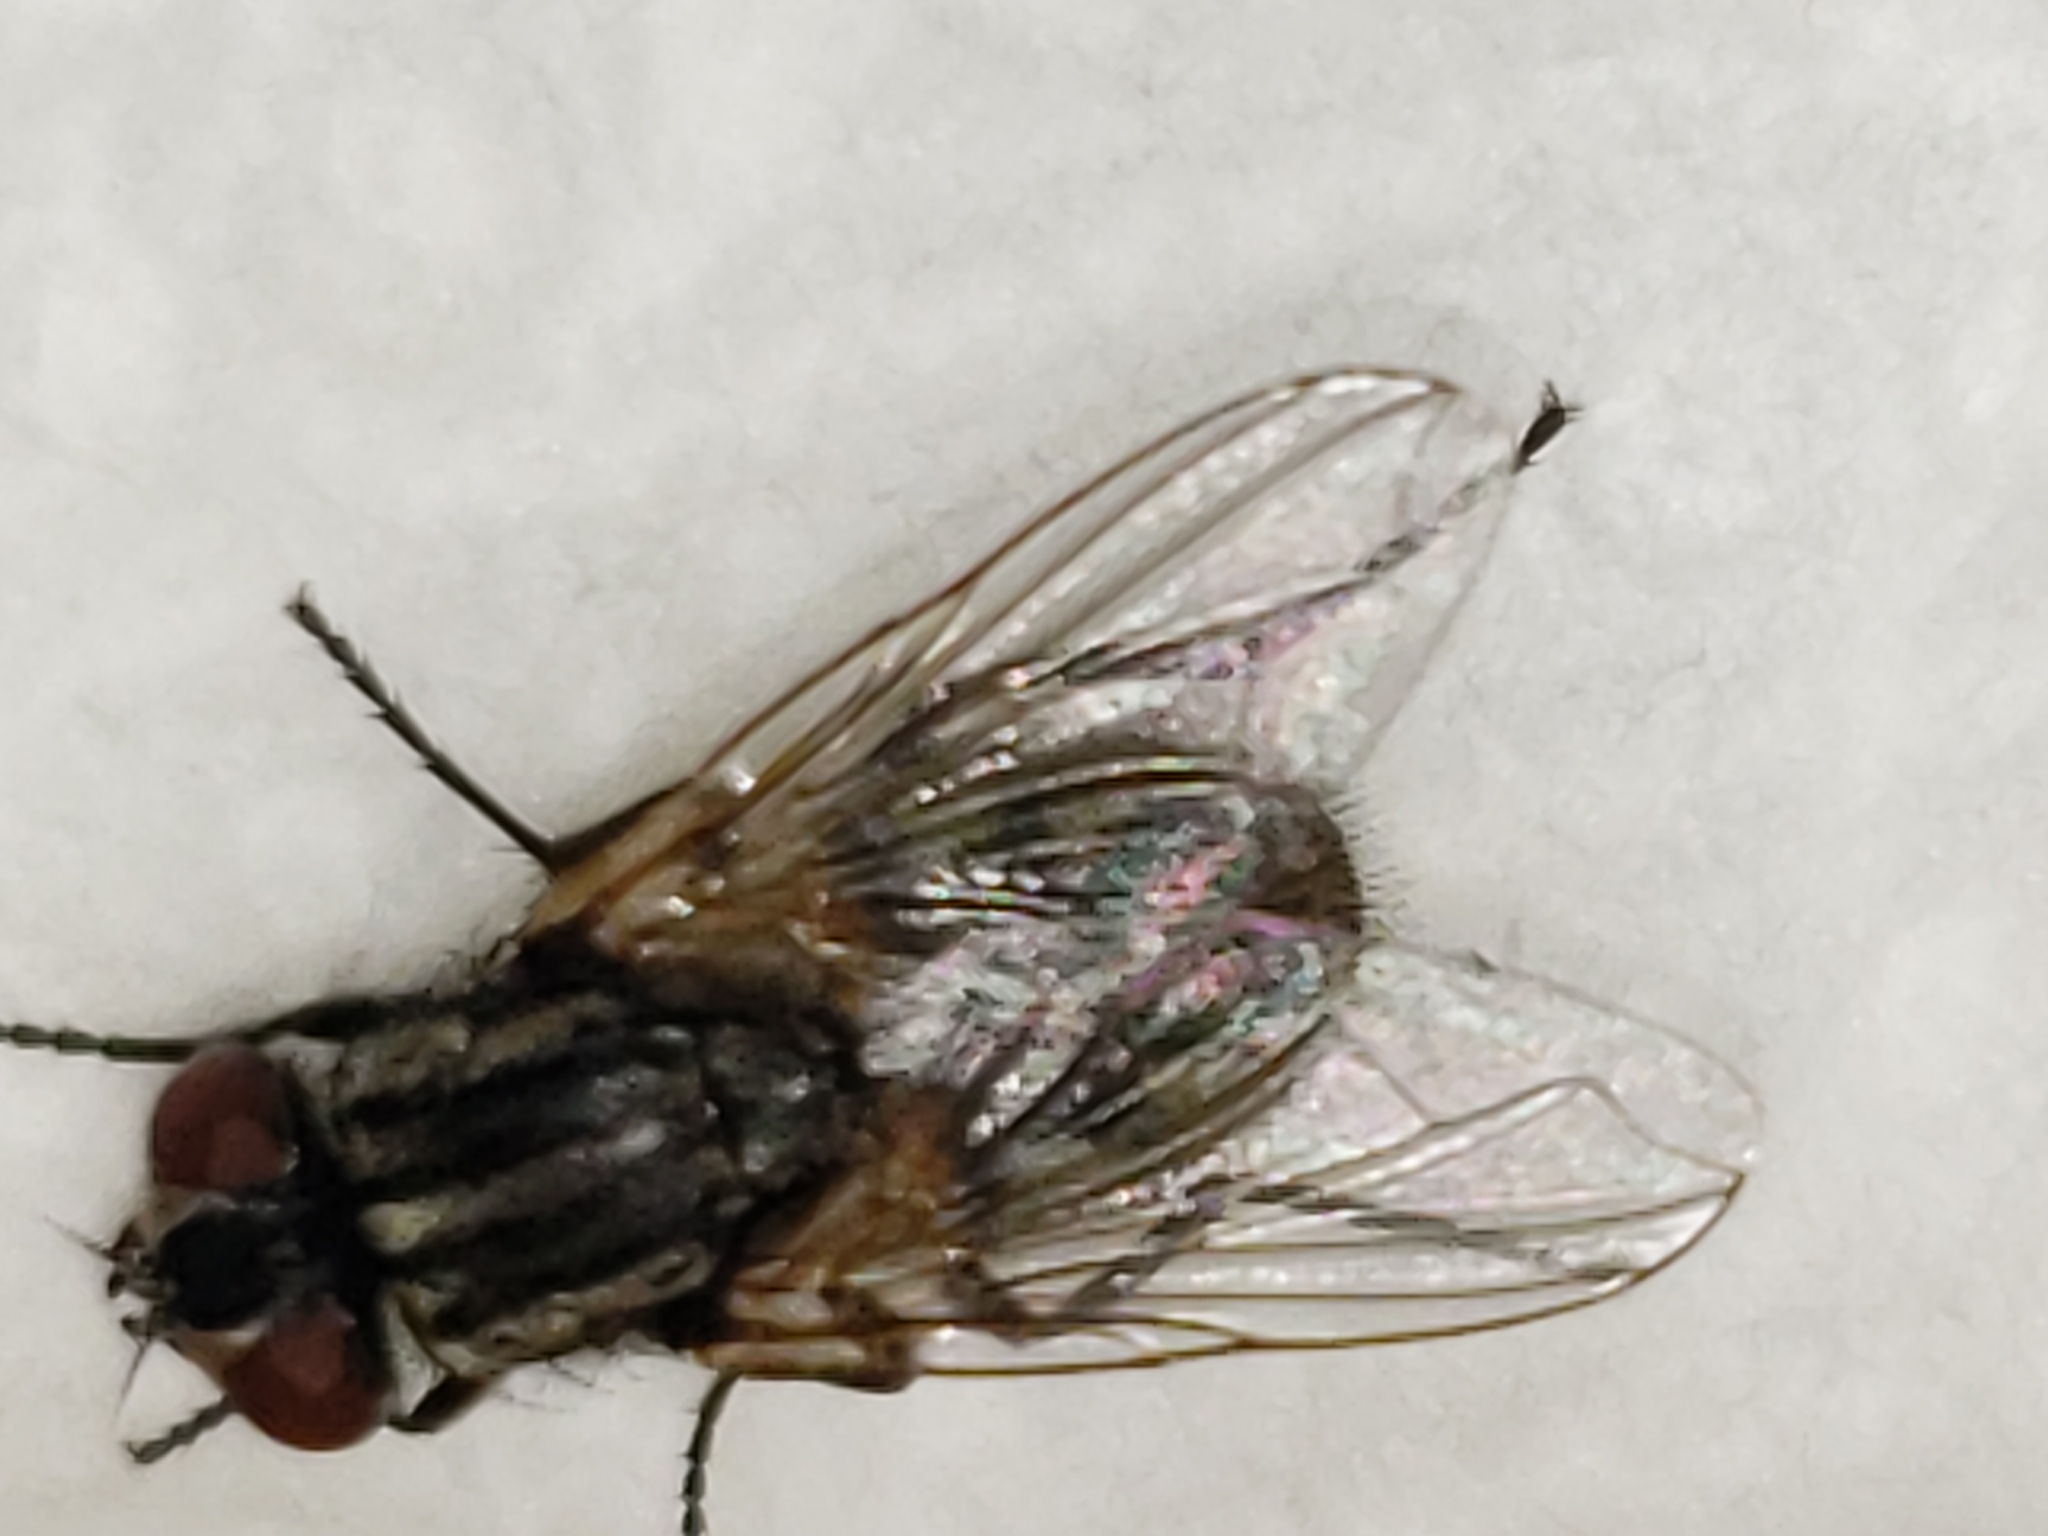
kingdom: Animalia
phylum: Arthropoda
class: Insecta
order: Diptera
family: Muscidae
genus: Musca
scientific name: Musca domestica
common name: House fly
